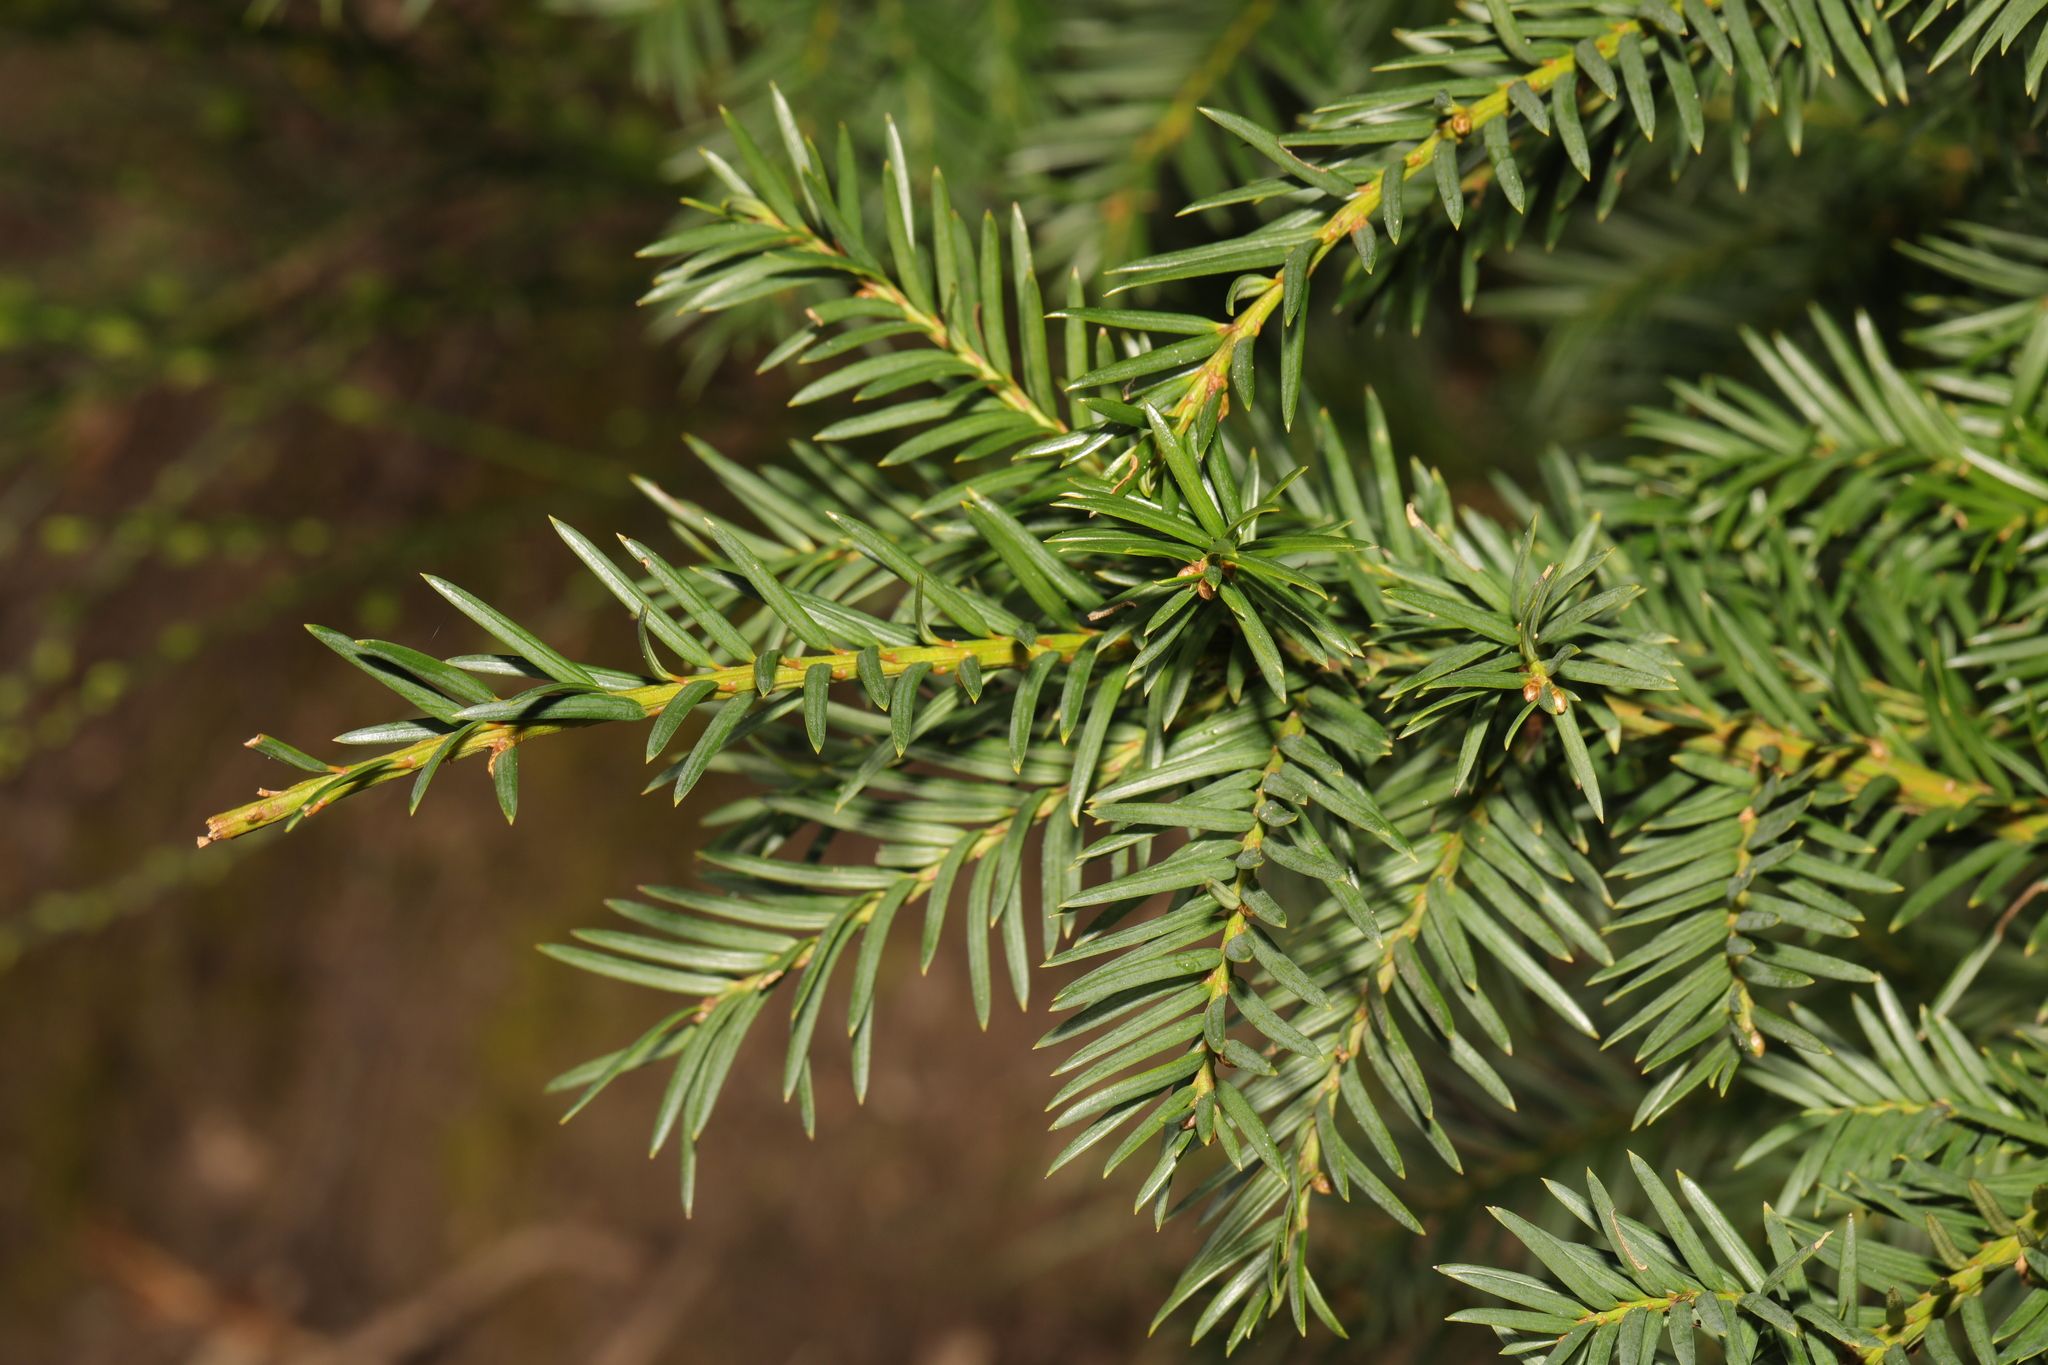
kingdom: Plantae
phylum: Tracheophyta
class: Pinopsida
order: Pinales
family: Taxaceae
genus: Taxus
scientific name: Taxus baccata
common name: Yew
